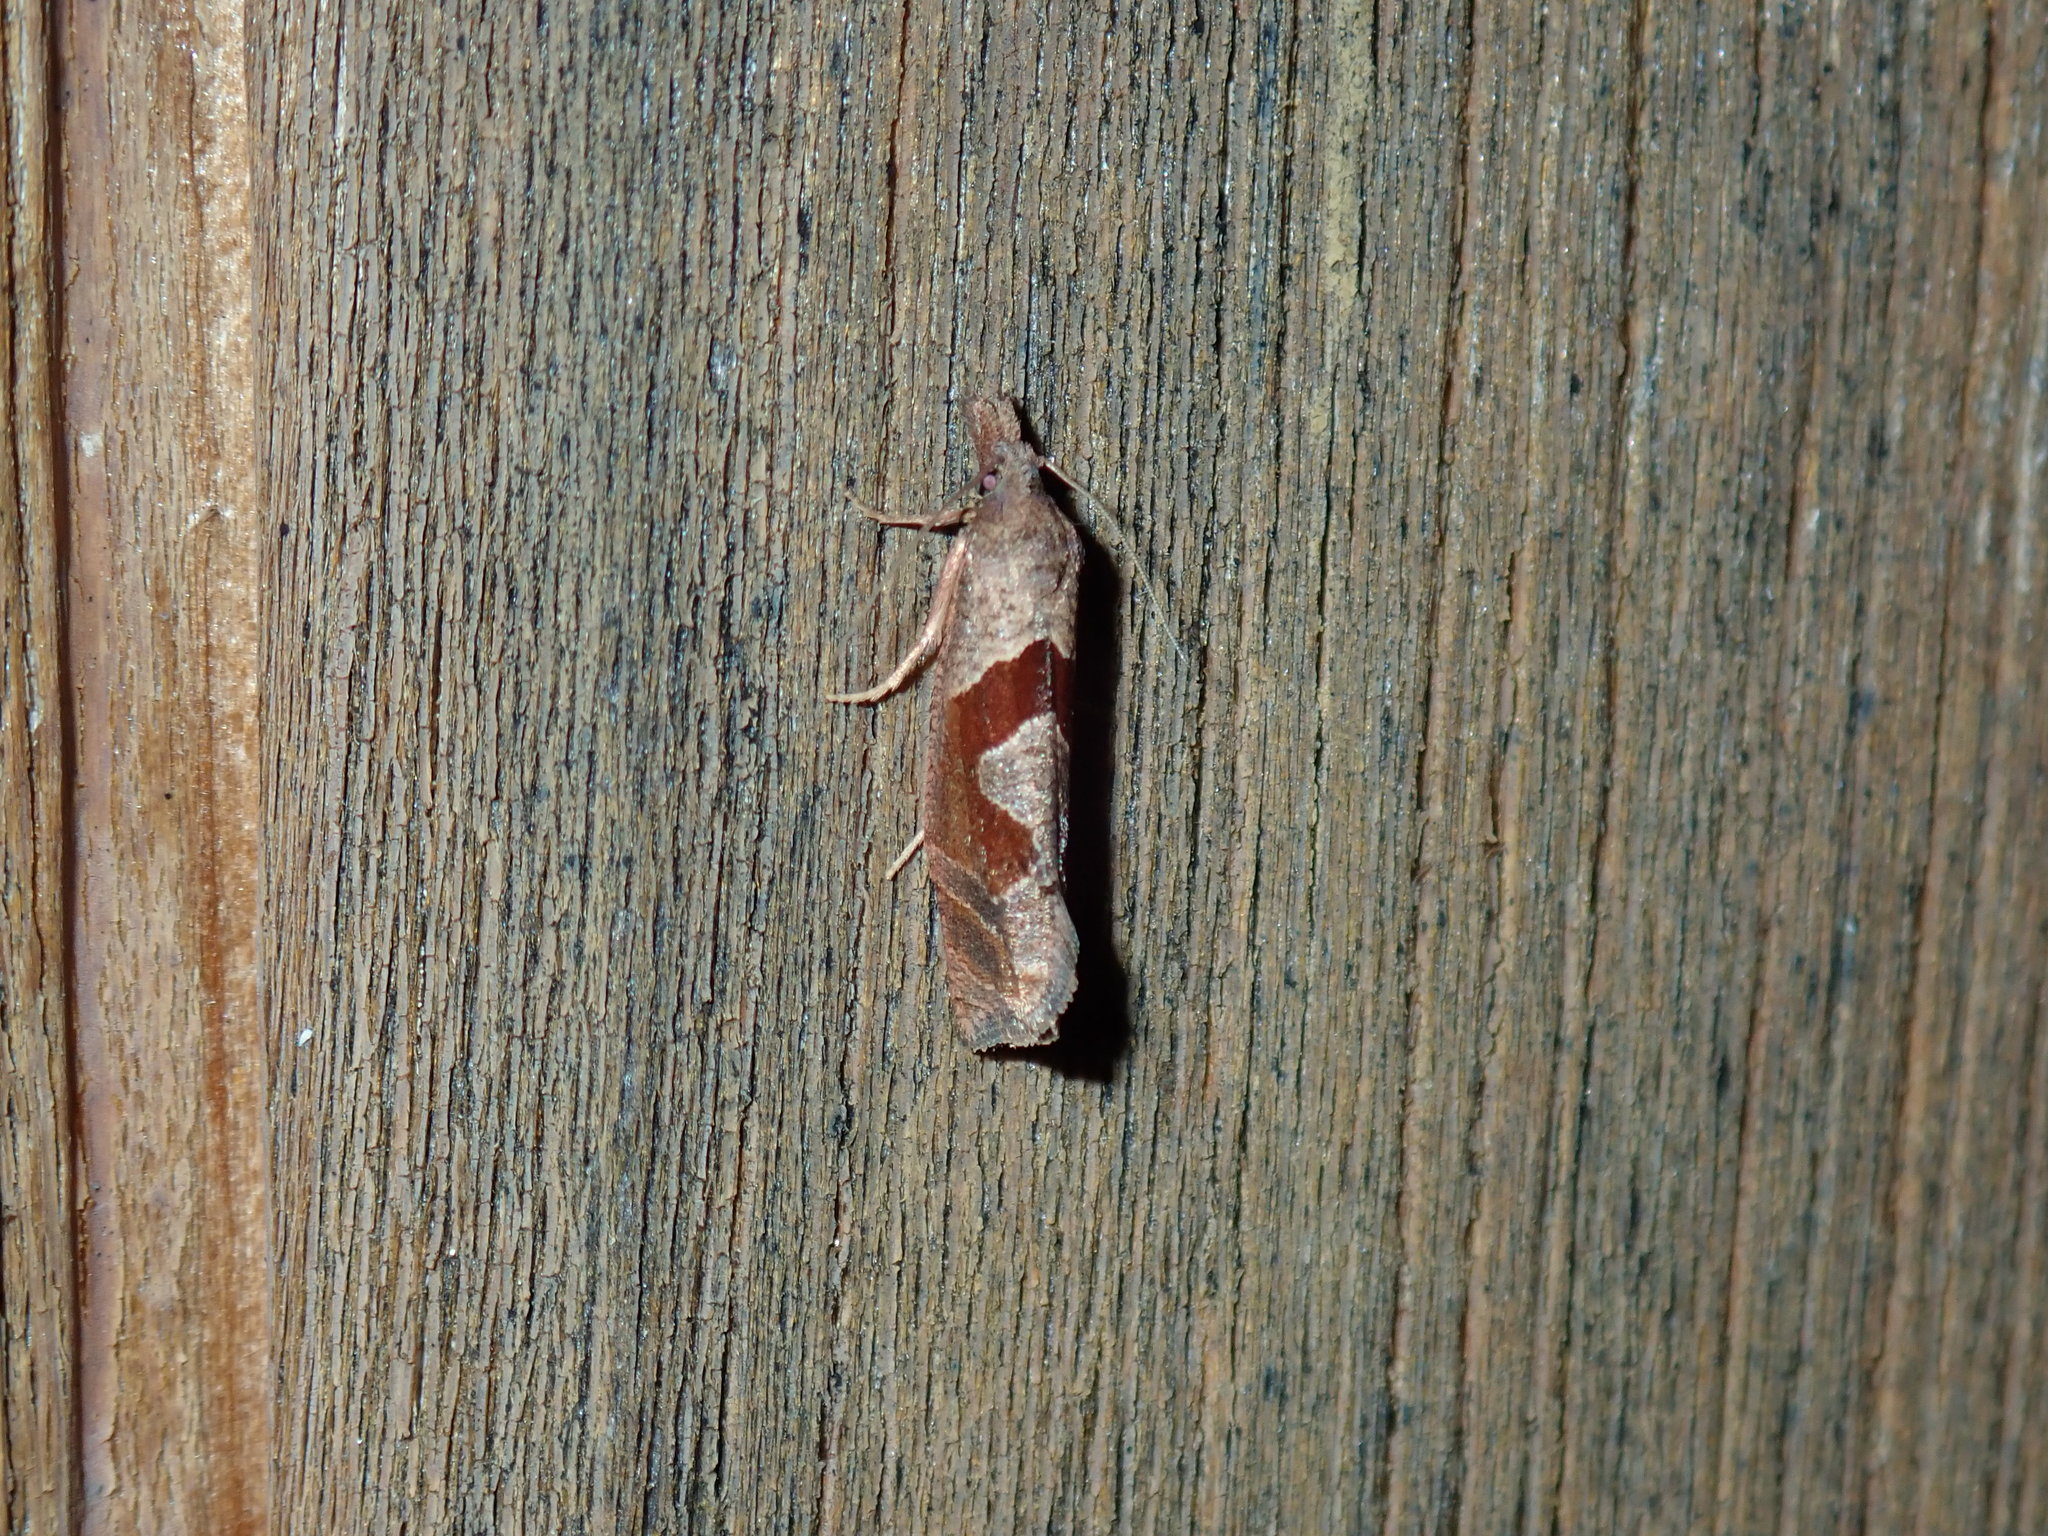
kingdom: Animalia
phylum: Arthropoda
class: Insecta
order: Lepidoptera
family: Tortricidae
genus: Pelochrista
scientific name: Pelochrista similiana
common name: Similar eucosma
